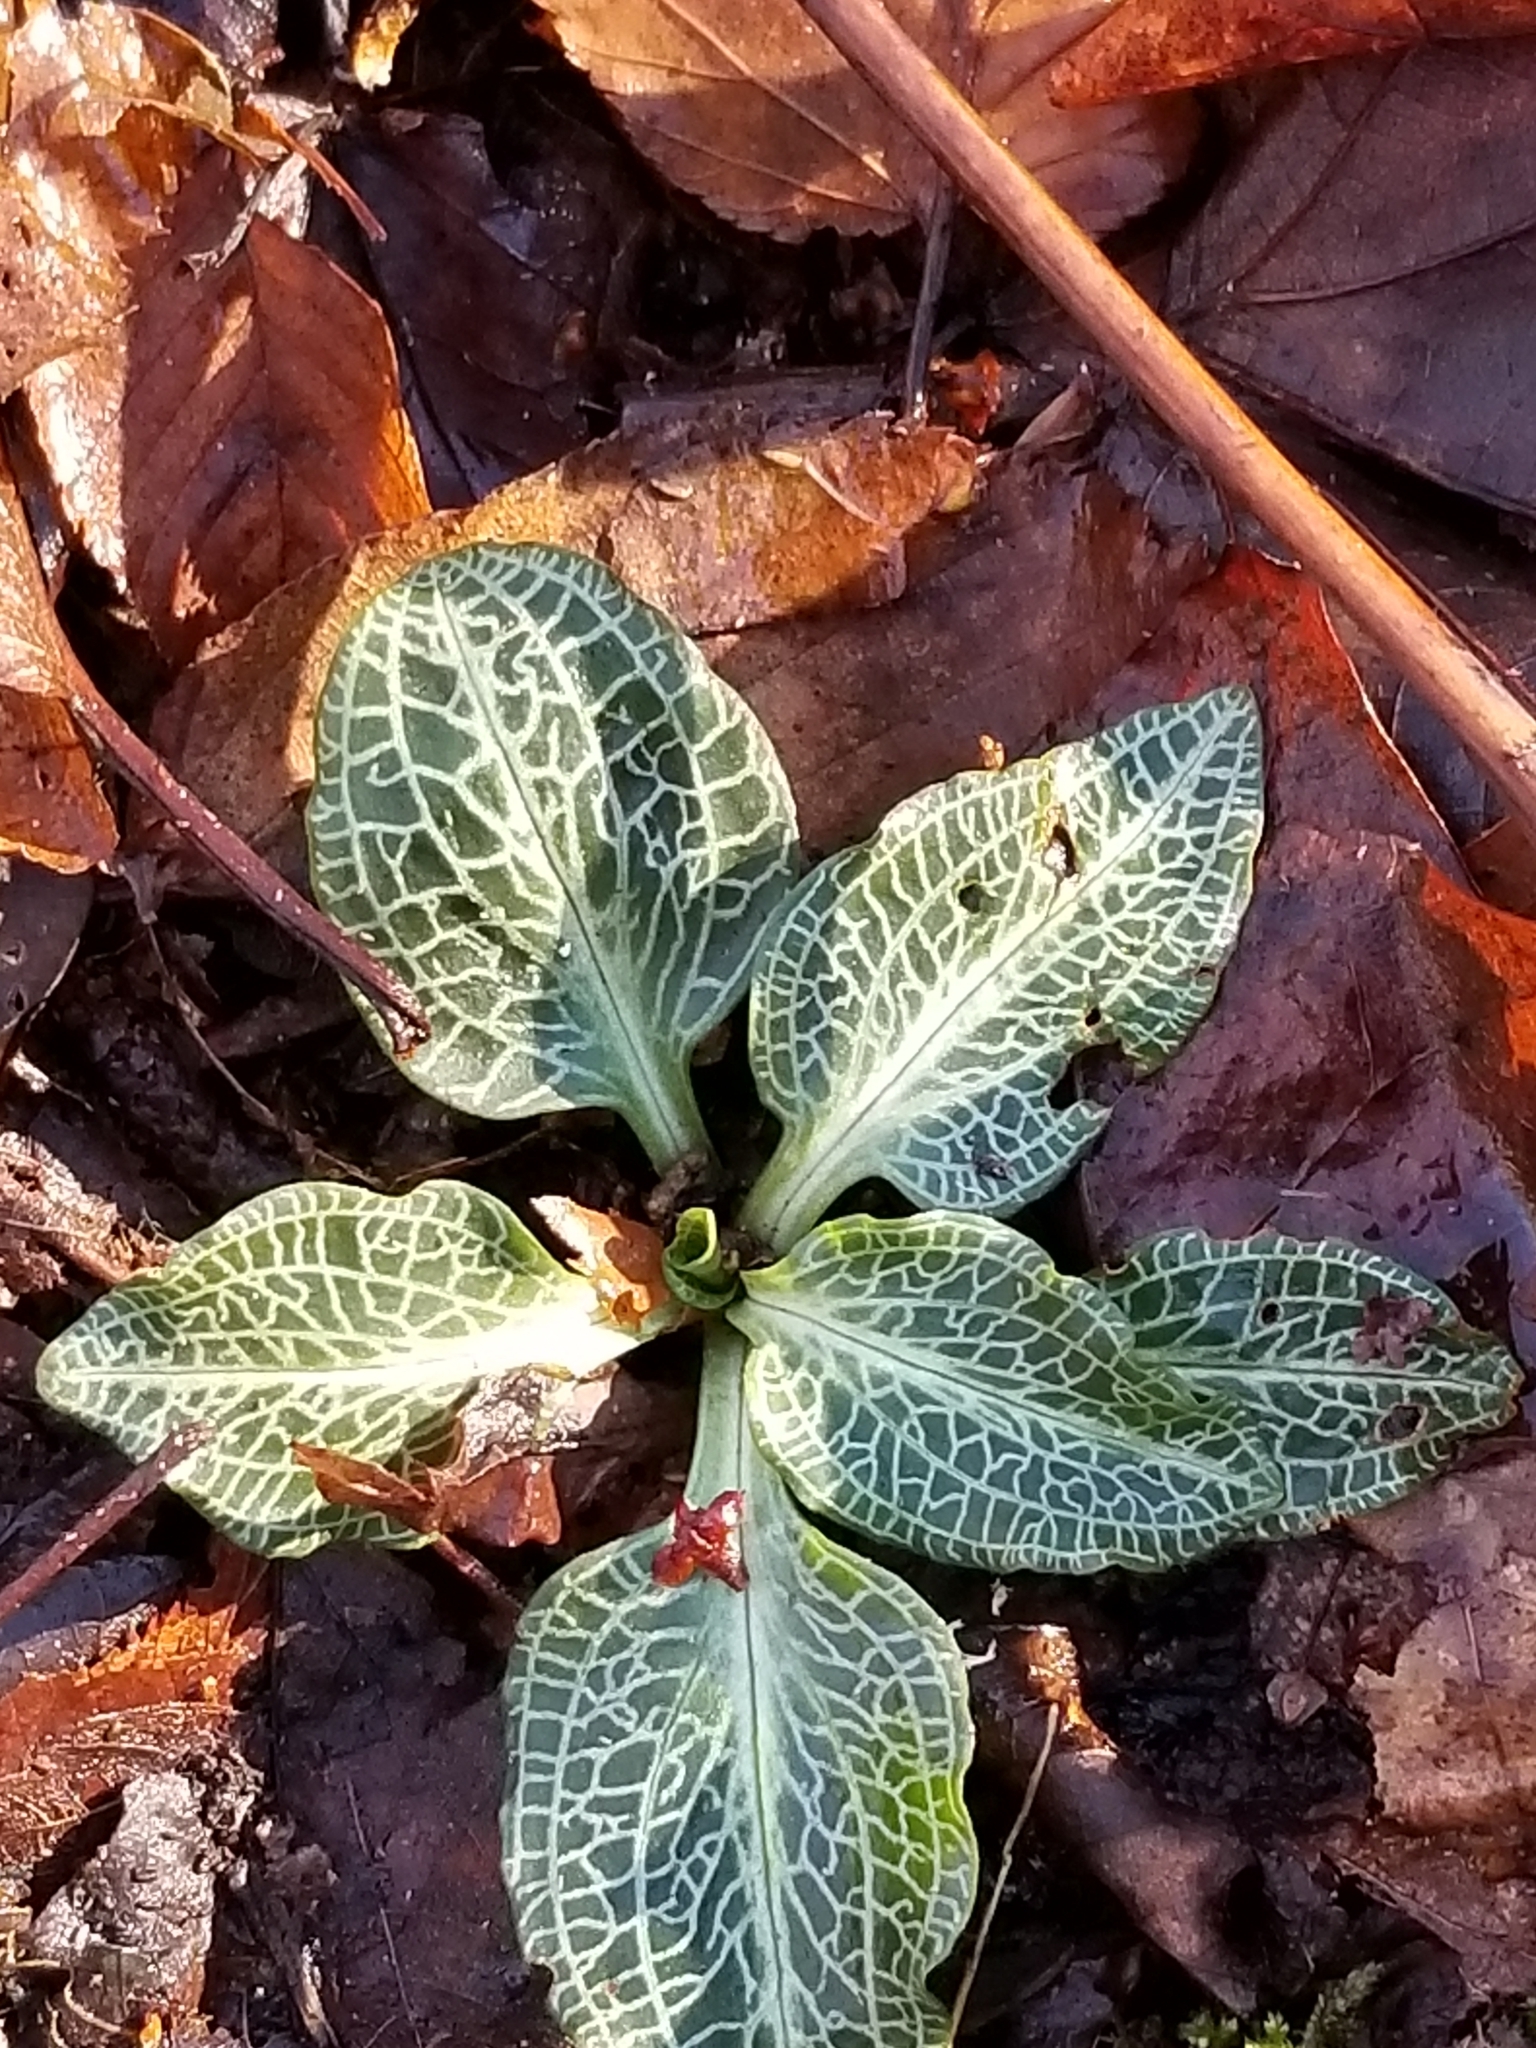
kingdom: Plantae
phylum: Tracheophyta
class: Liliopsida
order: Asparagales
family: Orchidaceae
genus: Goodyera
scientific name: Goodyera pubescens
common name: Downy rattlesnake-plantain
